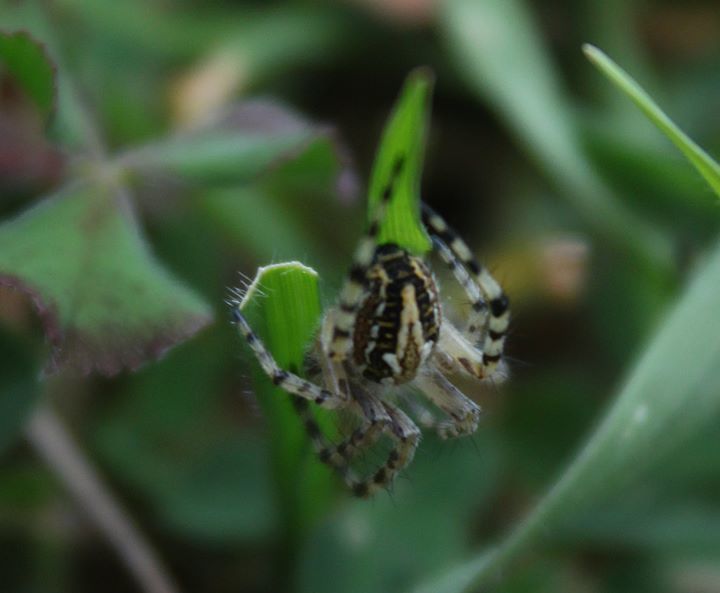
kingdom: Animalia
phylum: Arthropoda
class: Arachnida
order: Araneae
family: Araneidae
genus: Aculepeira
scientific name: Aculepeira armida
